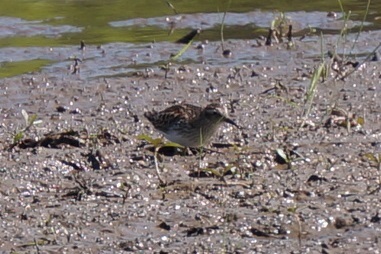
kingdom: Animalia
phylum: Chordata
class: Aves
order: Charadriiformes
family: Scolopacidae
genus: Calidris
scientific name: Calidris minutilla
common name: Least sandpiper
